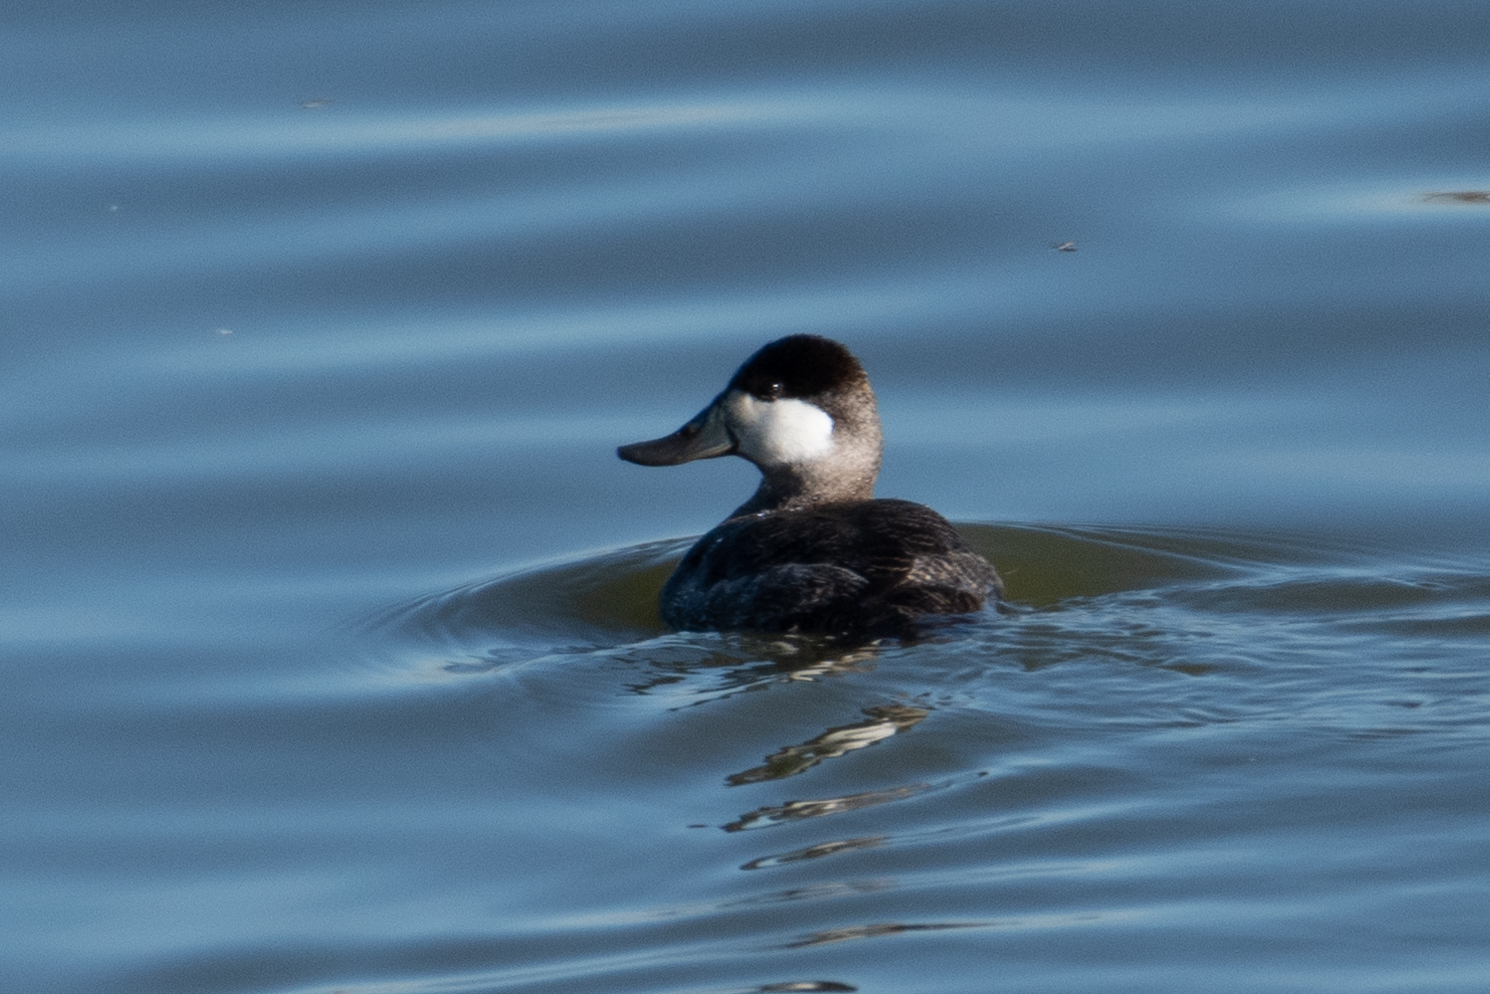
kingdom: Animalia
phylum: Chordata
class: Aves
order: Anseriformes
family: Anatidae
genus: Oxyura
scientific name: Oxyura jamaicensis
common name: Ruddy duck
